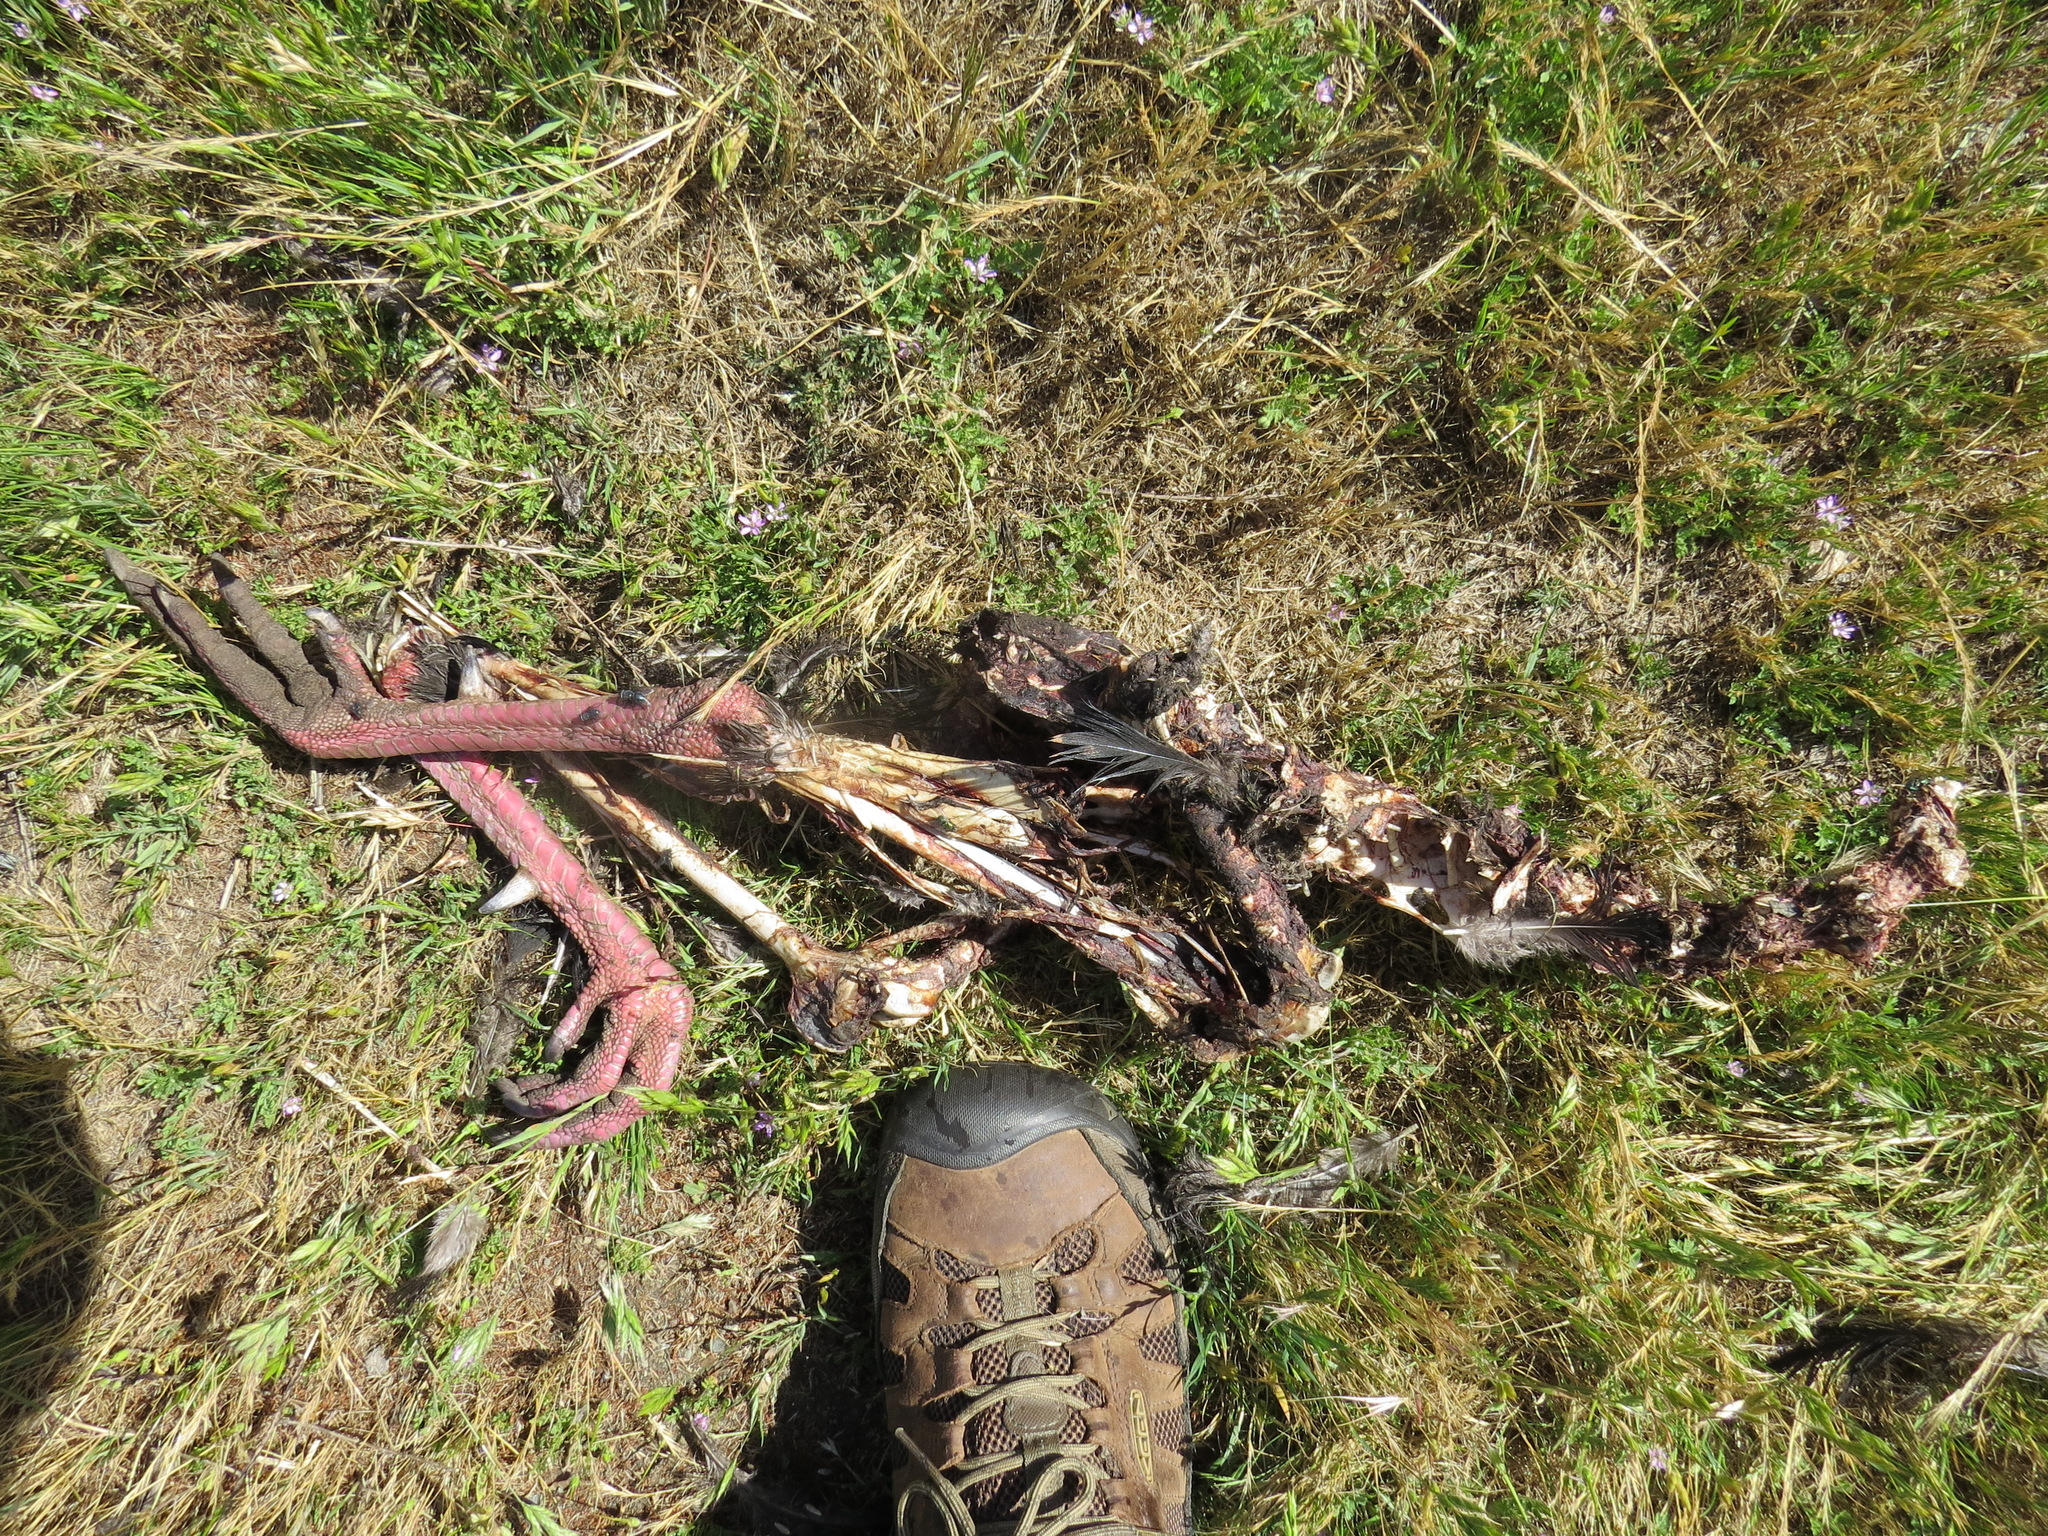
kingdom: Animalia
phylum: Chordata
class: Aves
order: Galliformes
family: Phasianidae
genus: Meleagris
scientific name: Meleagris gallopavo
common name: Wild turkey
